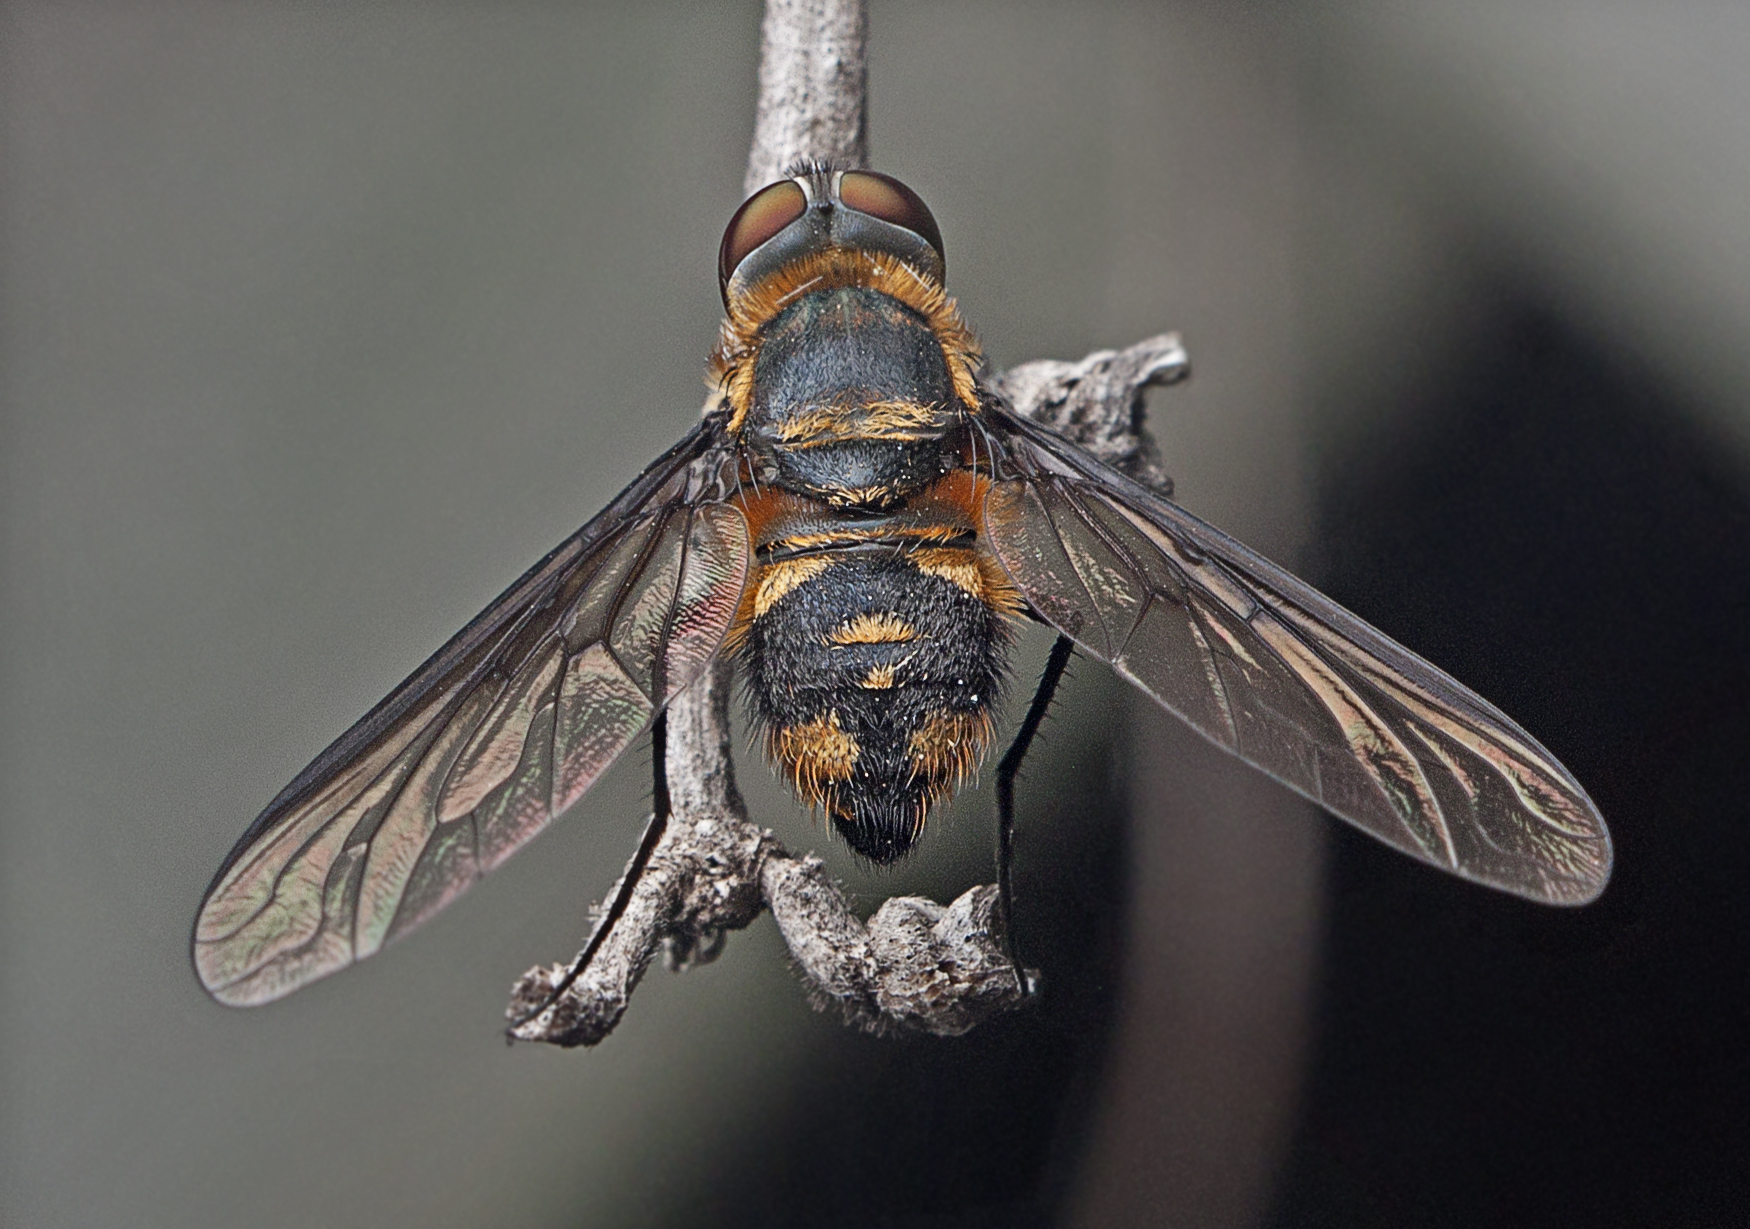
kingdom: Animalia
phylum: Arthropoda
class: Insecta
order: Diptera
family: Bombyliidae
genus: Thraxan
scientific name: Thraxan luteus
